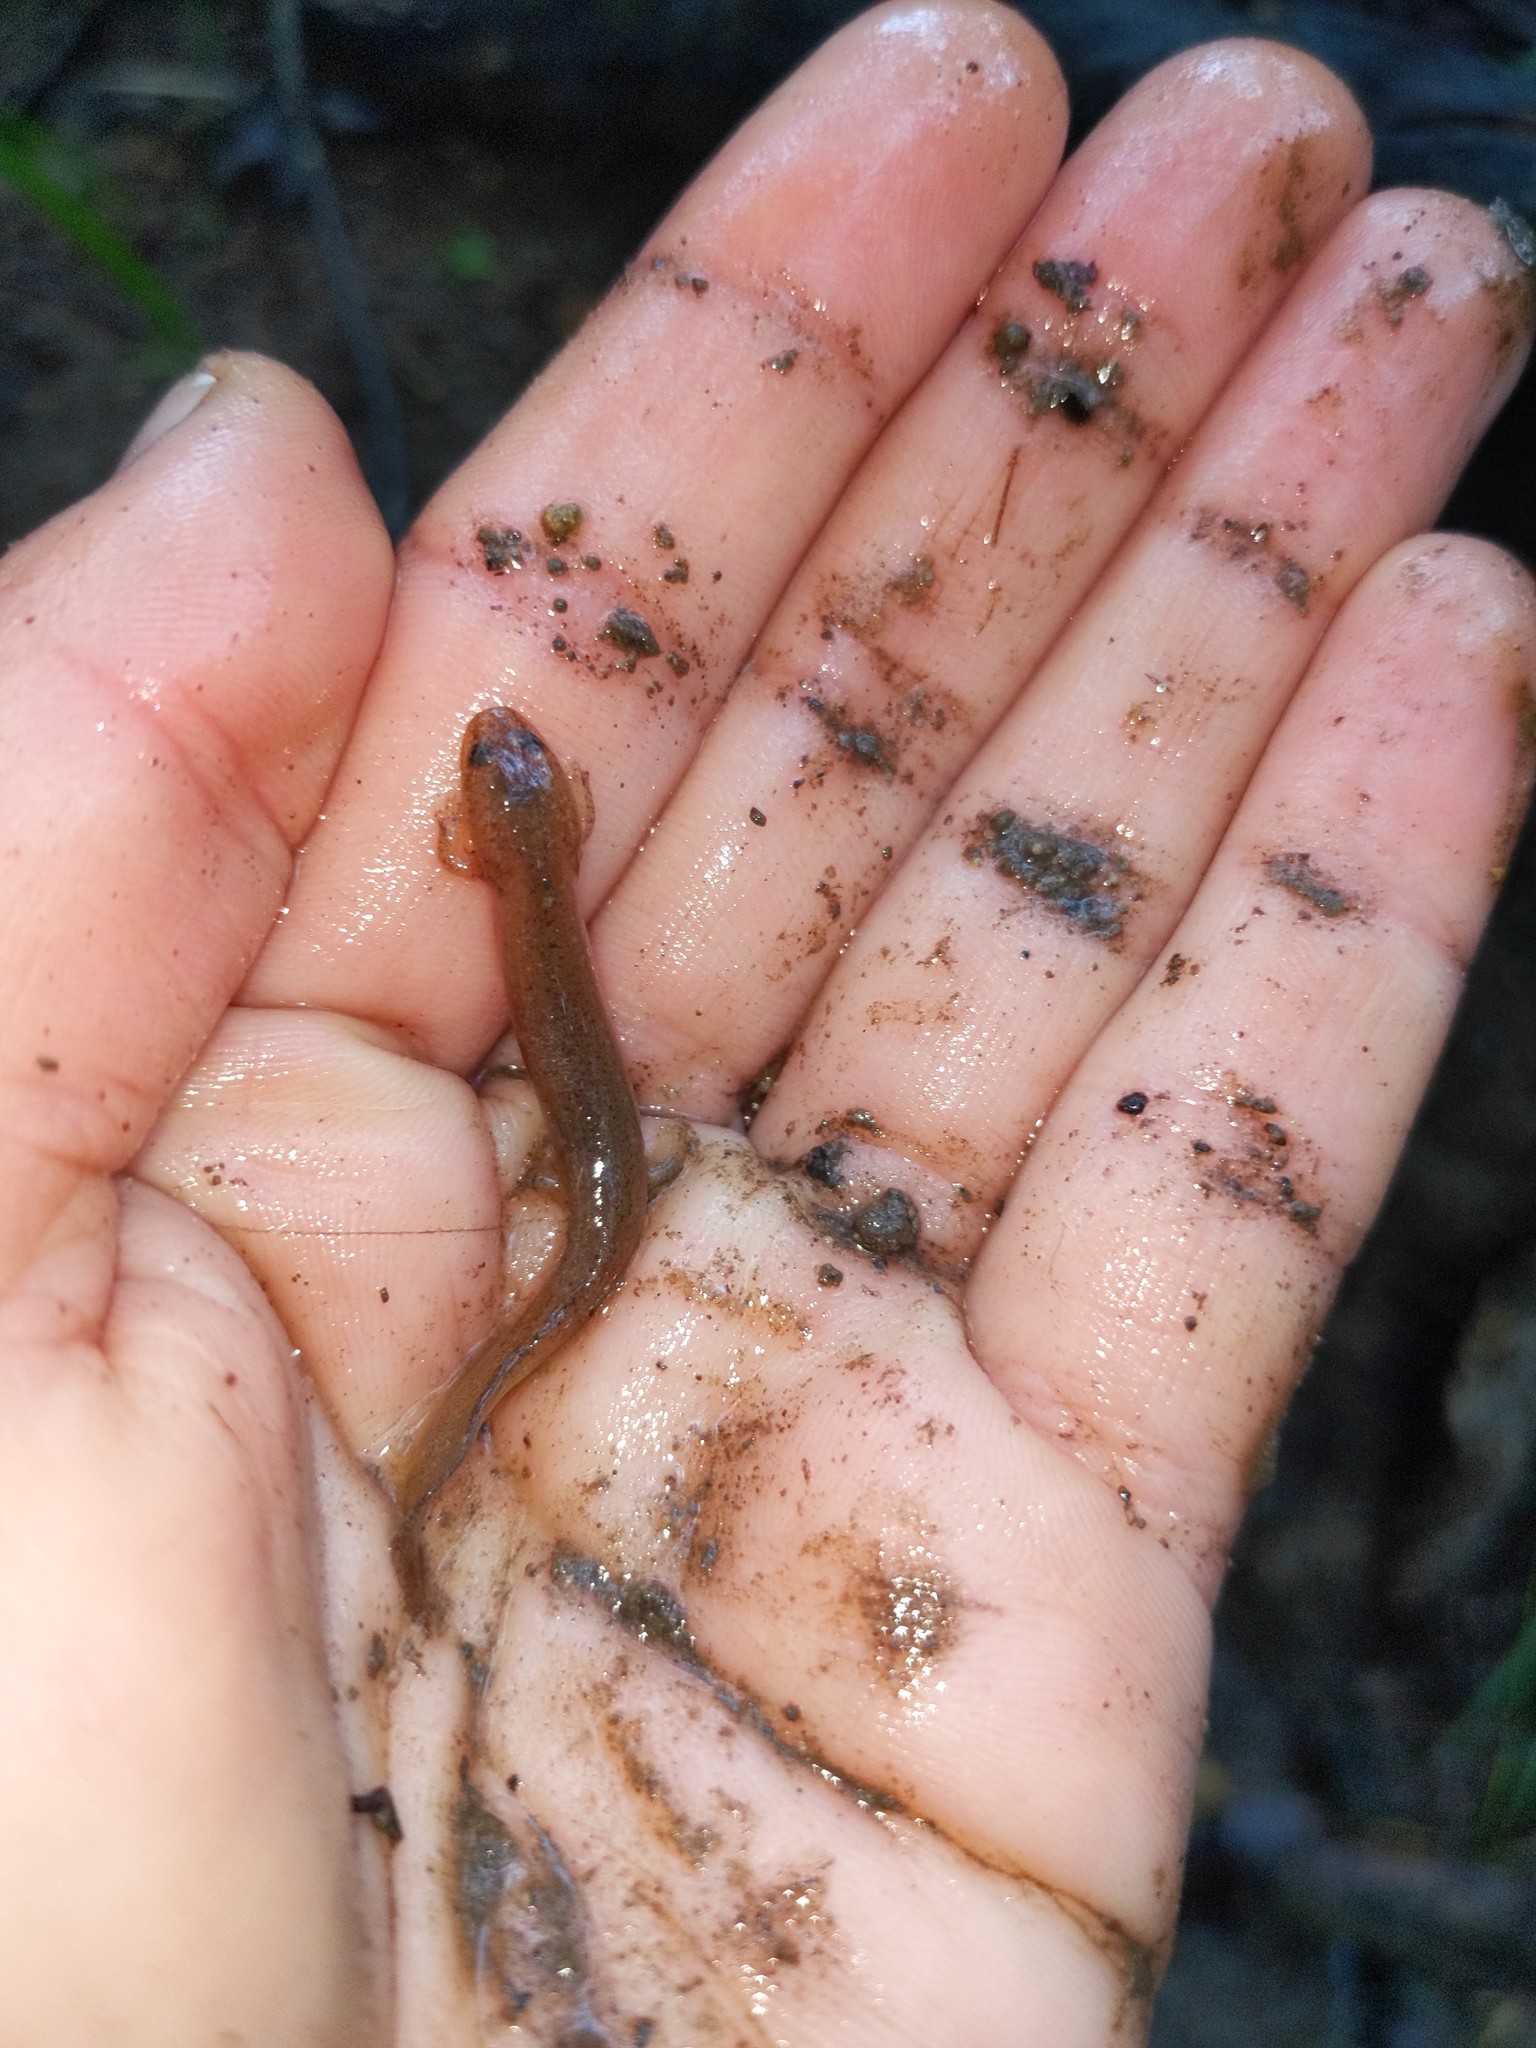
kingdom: Animalia
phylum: Chordata
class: Amphibia
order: Caudata
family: Plethodontidae
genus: Pseudotriton
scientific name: Pseudotriton ruber
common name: Red salamander
